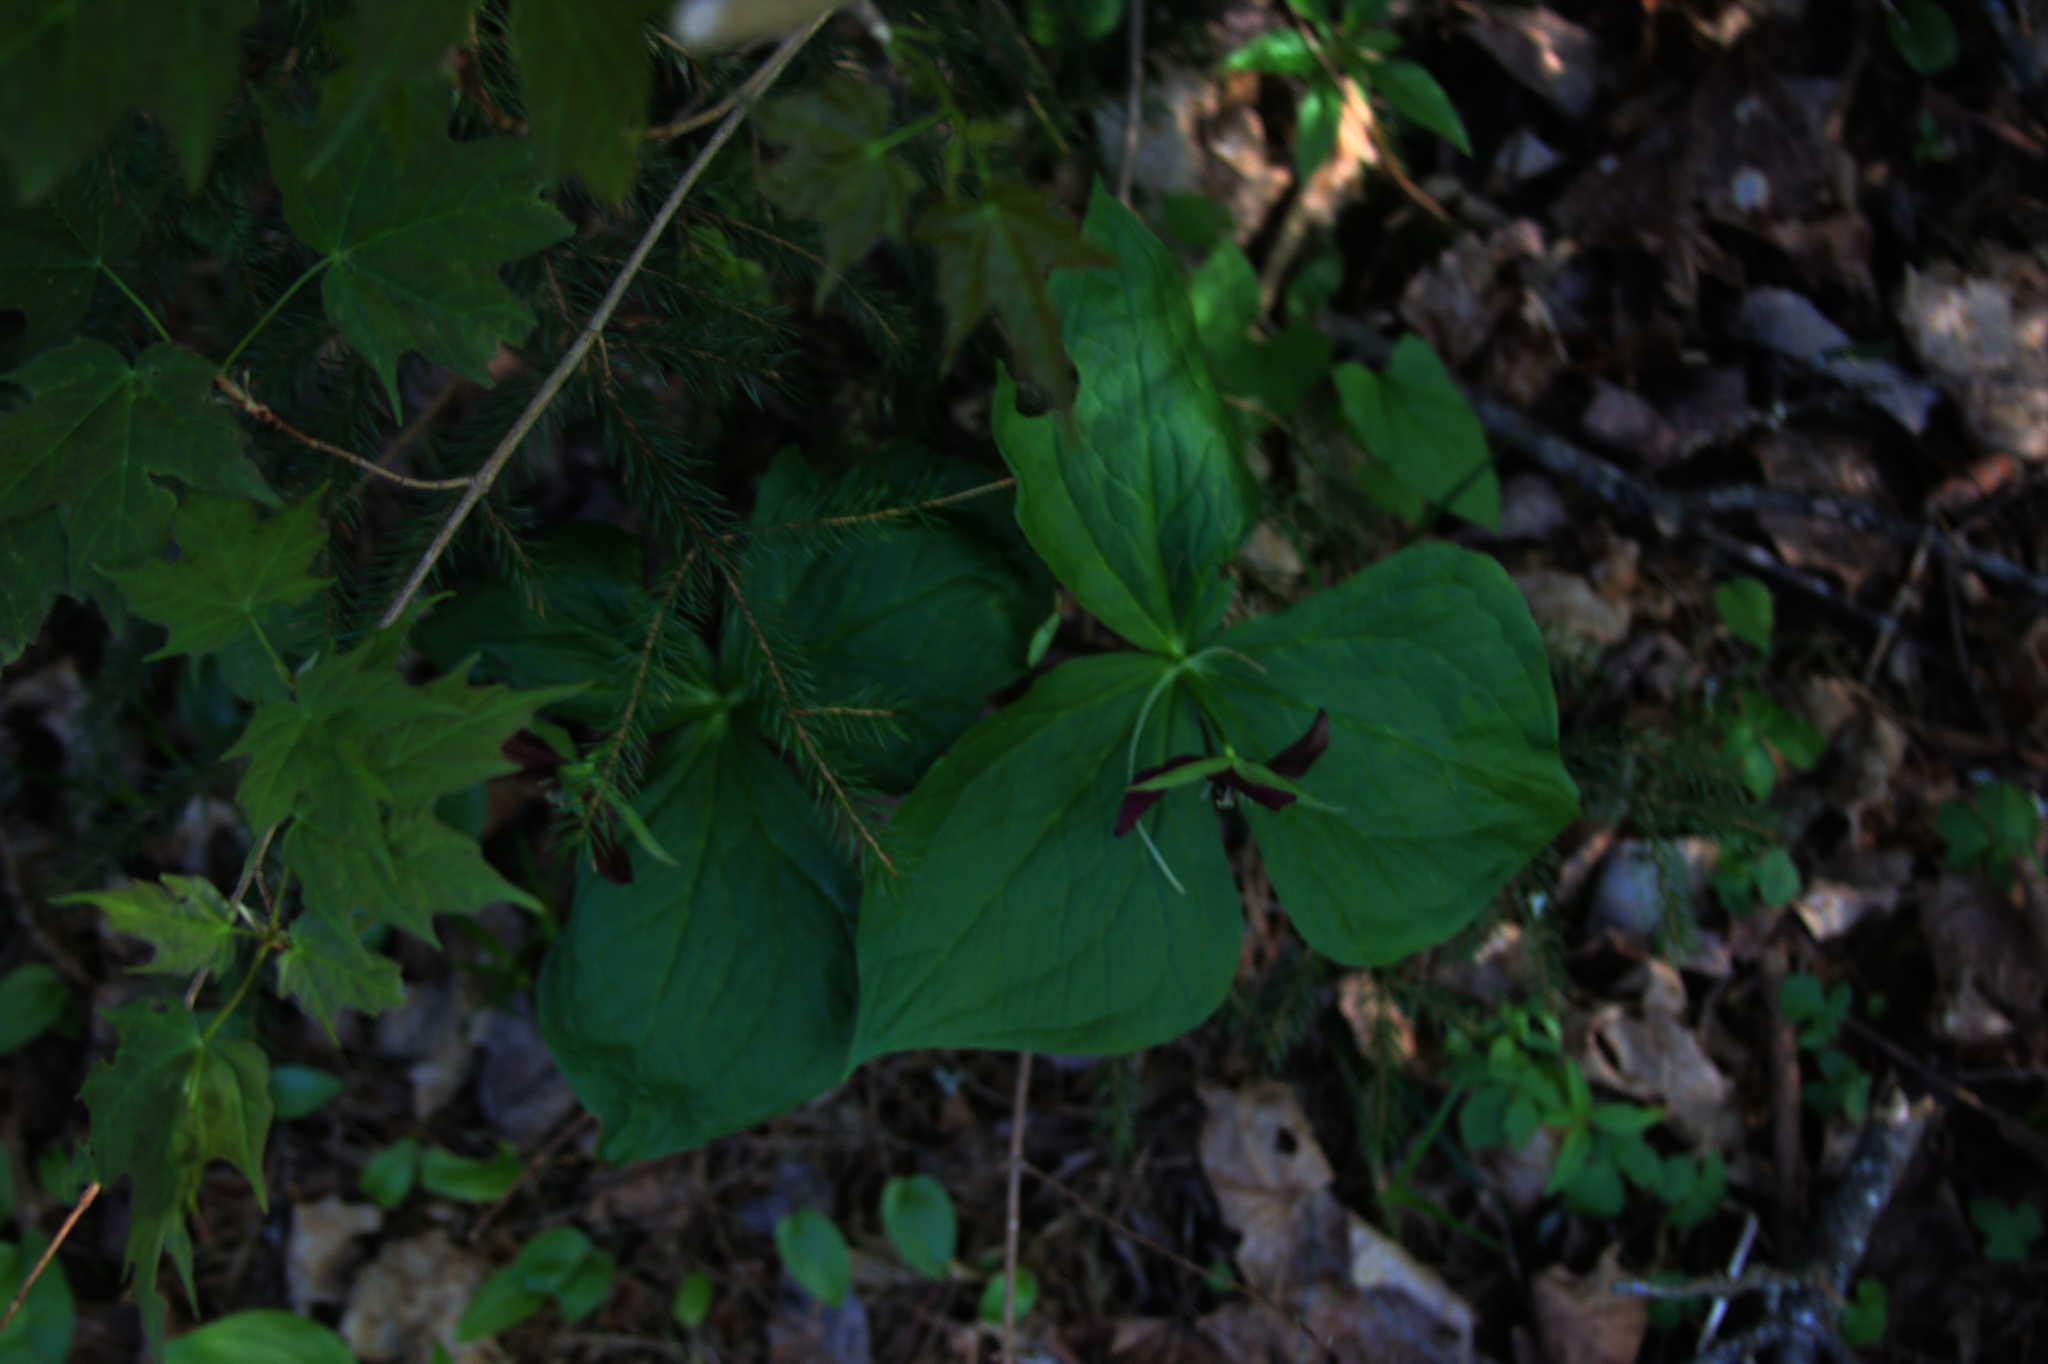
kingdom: Plantae
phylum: Tracheophyta
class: Liliopsida
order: Liliales
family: Melanthiaceae
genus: Trillium
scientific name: Trillium erectum
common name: Purple trillium
